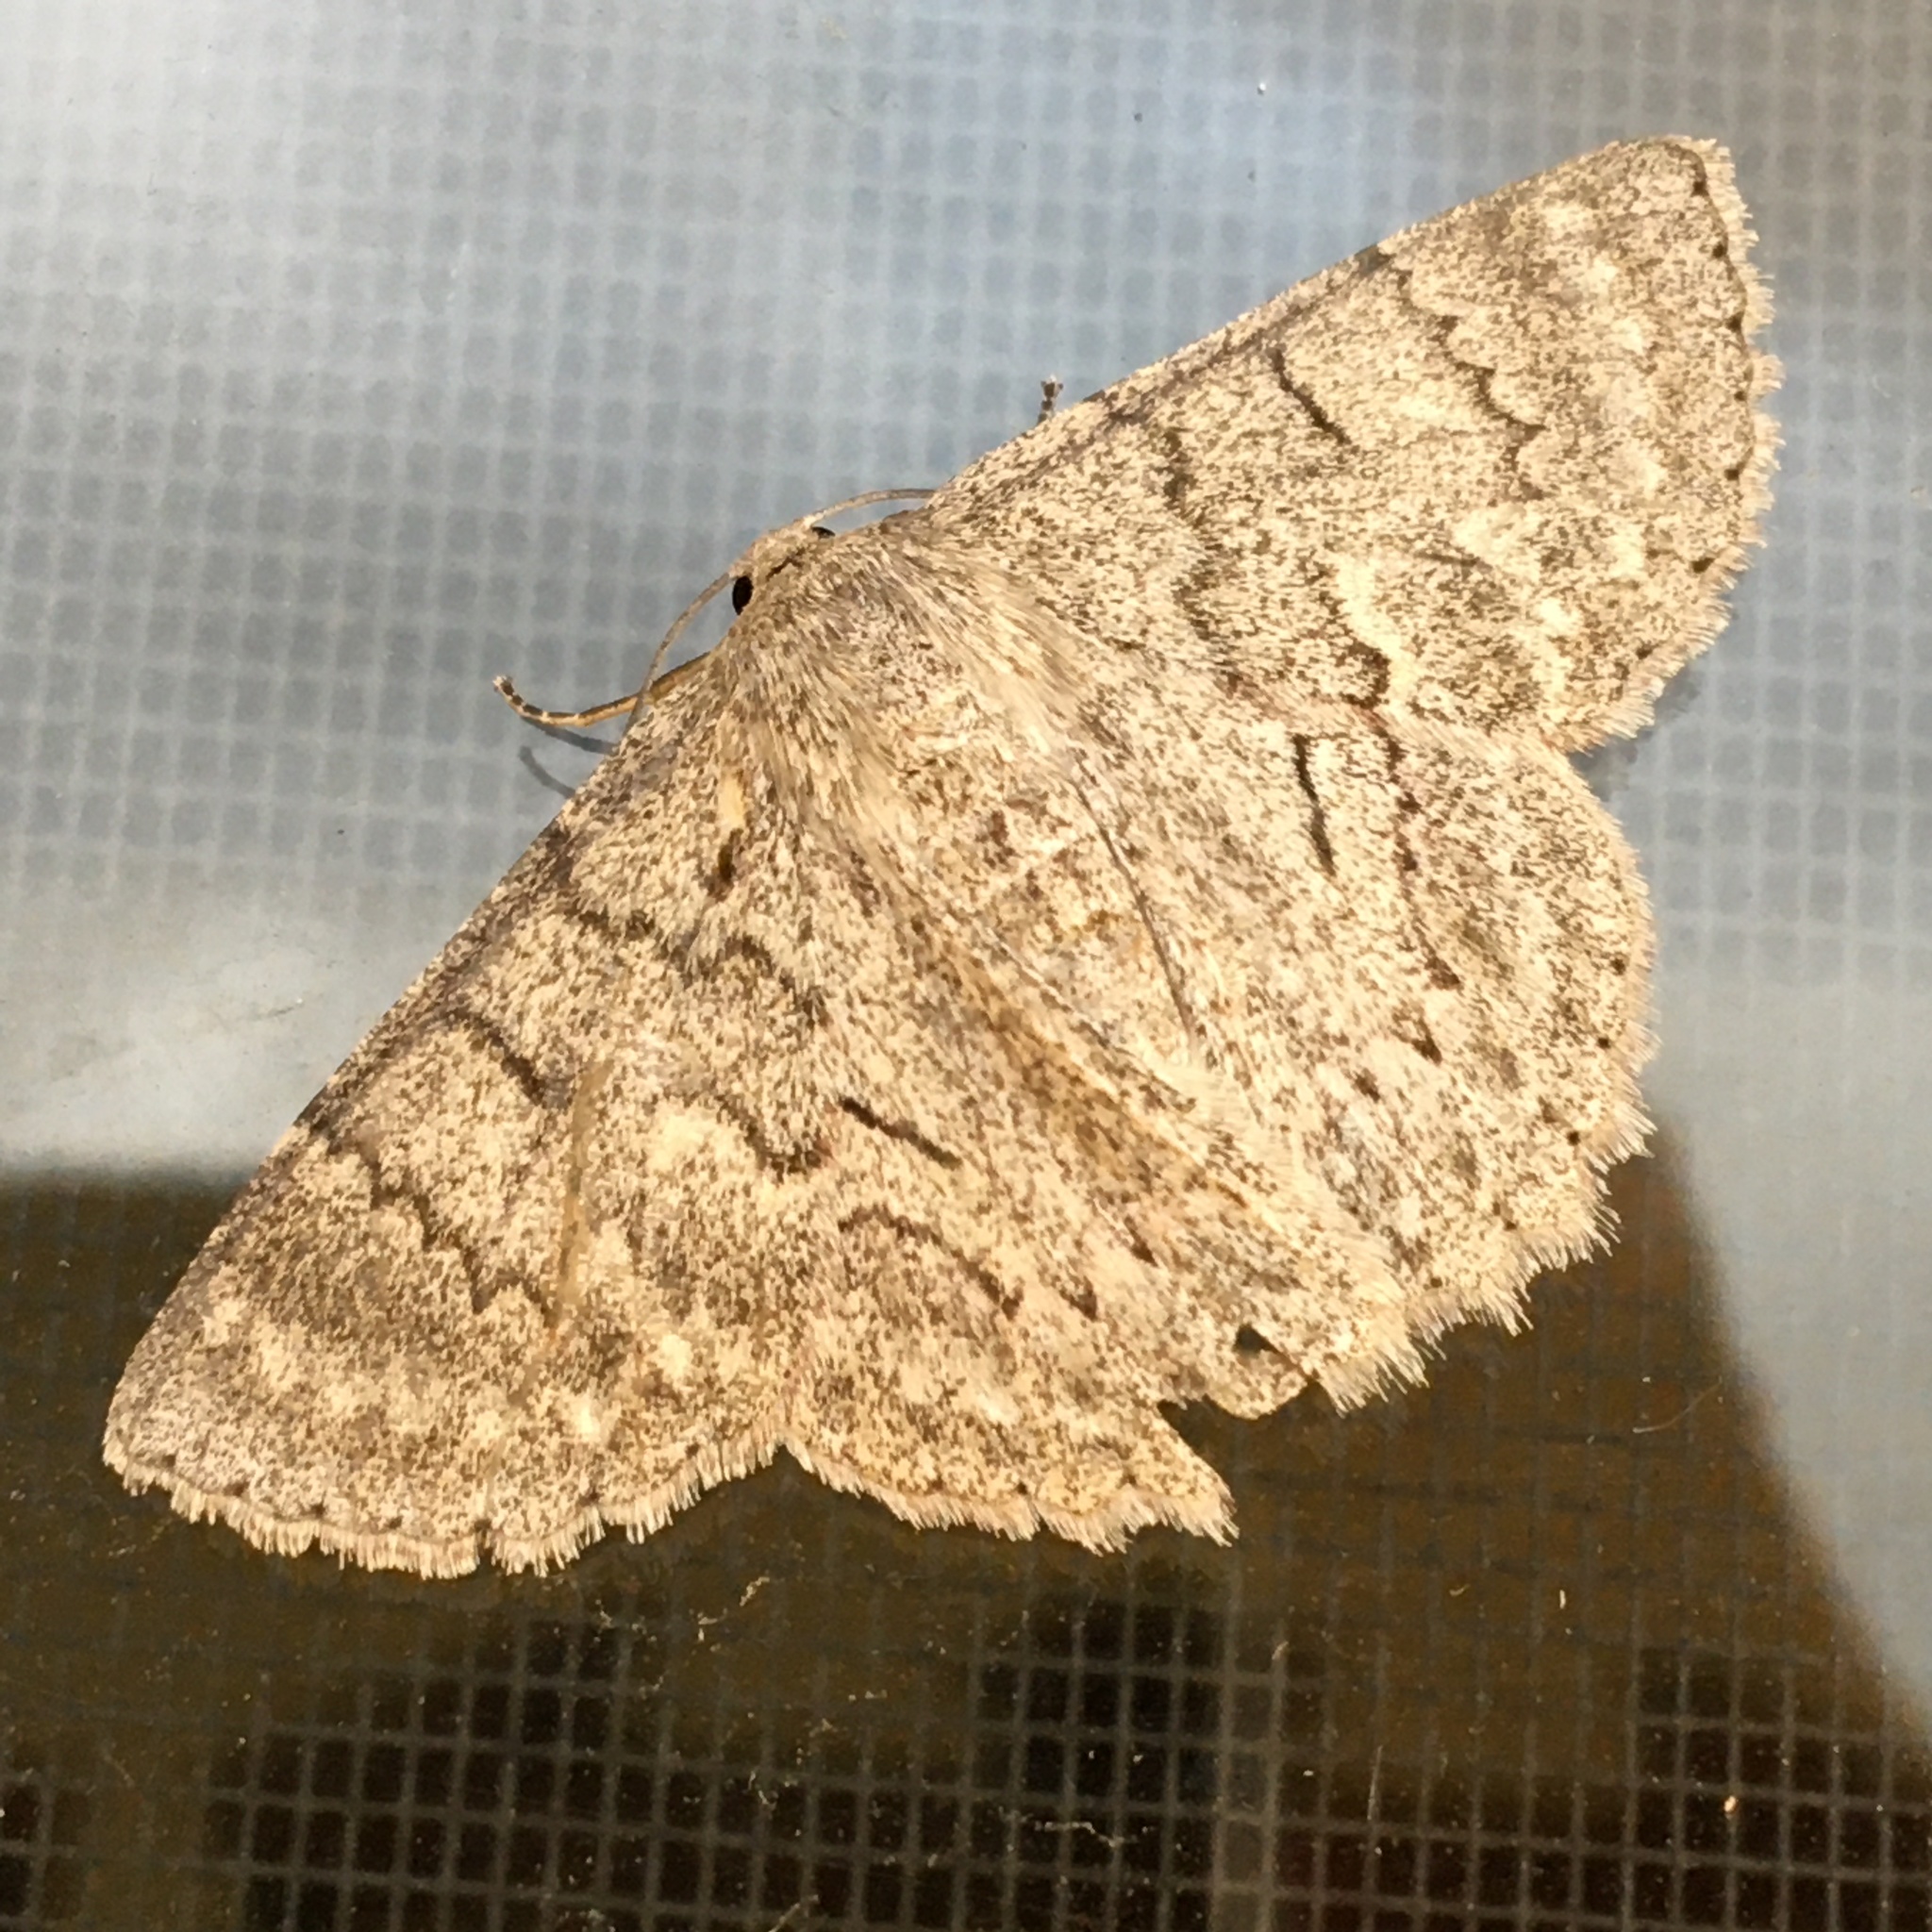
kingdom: Animalia
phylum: Arthropoda
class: Insecta
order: Lepidoptera
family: Geometridae
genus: Crypsiphona
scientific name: Crypsiphona ocultaria
